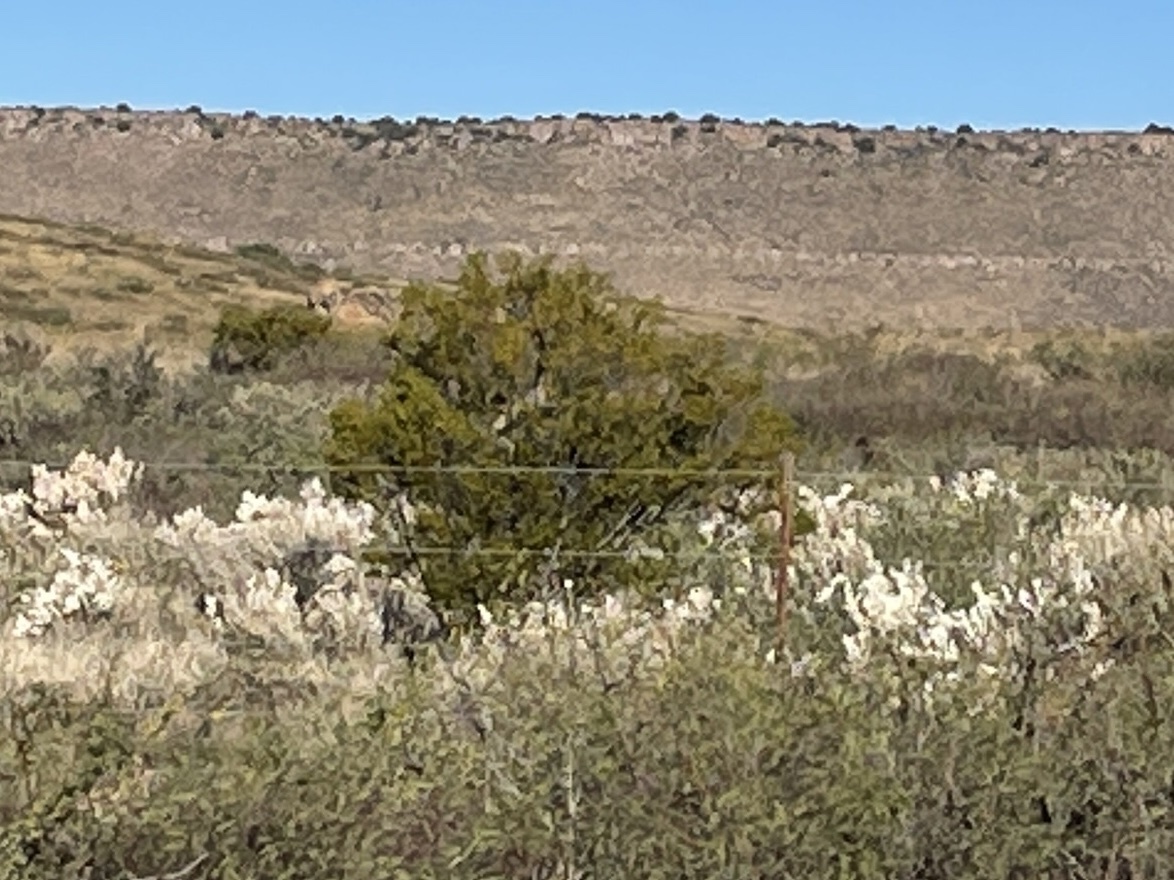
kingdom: Plantae
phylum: Tracheophyta
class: Magnoliopsida
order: Zygophyllales
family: Zygophyllaceae
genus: Larrea
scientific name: Larrea tridentata
